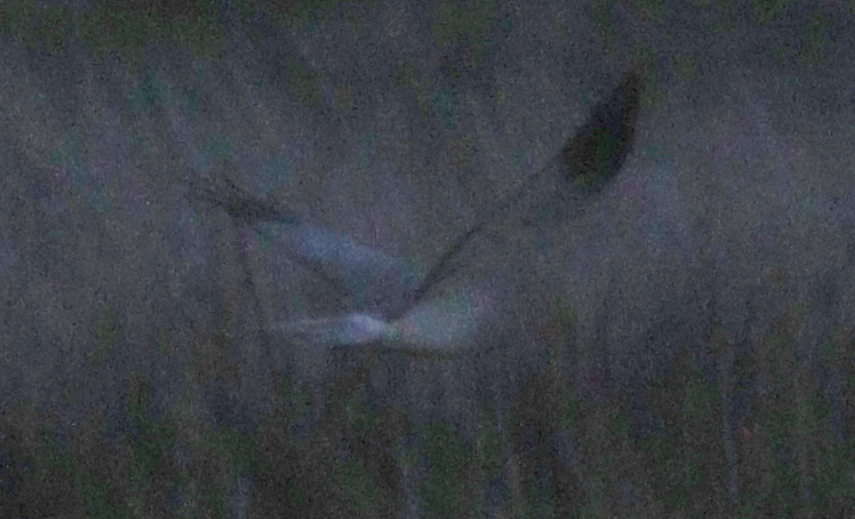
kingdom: Animalia
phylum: Chordata
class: Aves
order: Accipitriformes
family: Accipitridae
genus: Circus
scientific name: Circus cyaneus
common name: Hen harrier
